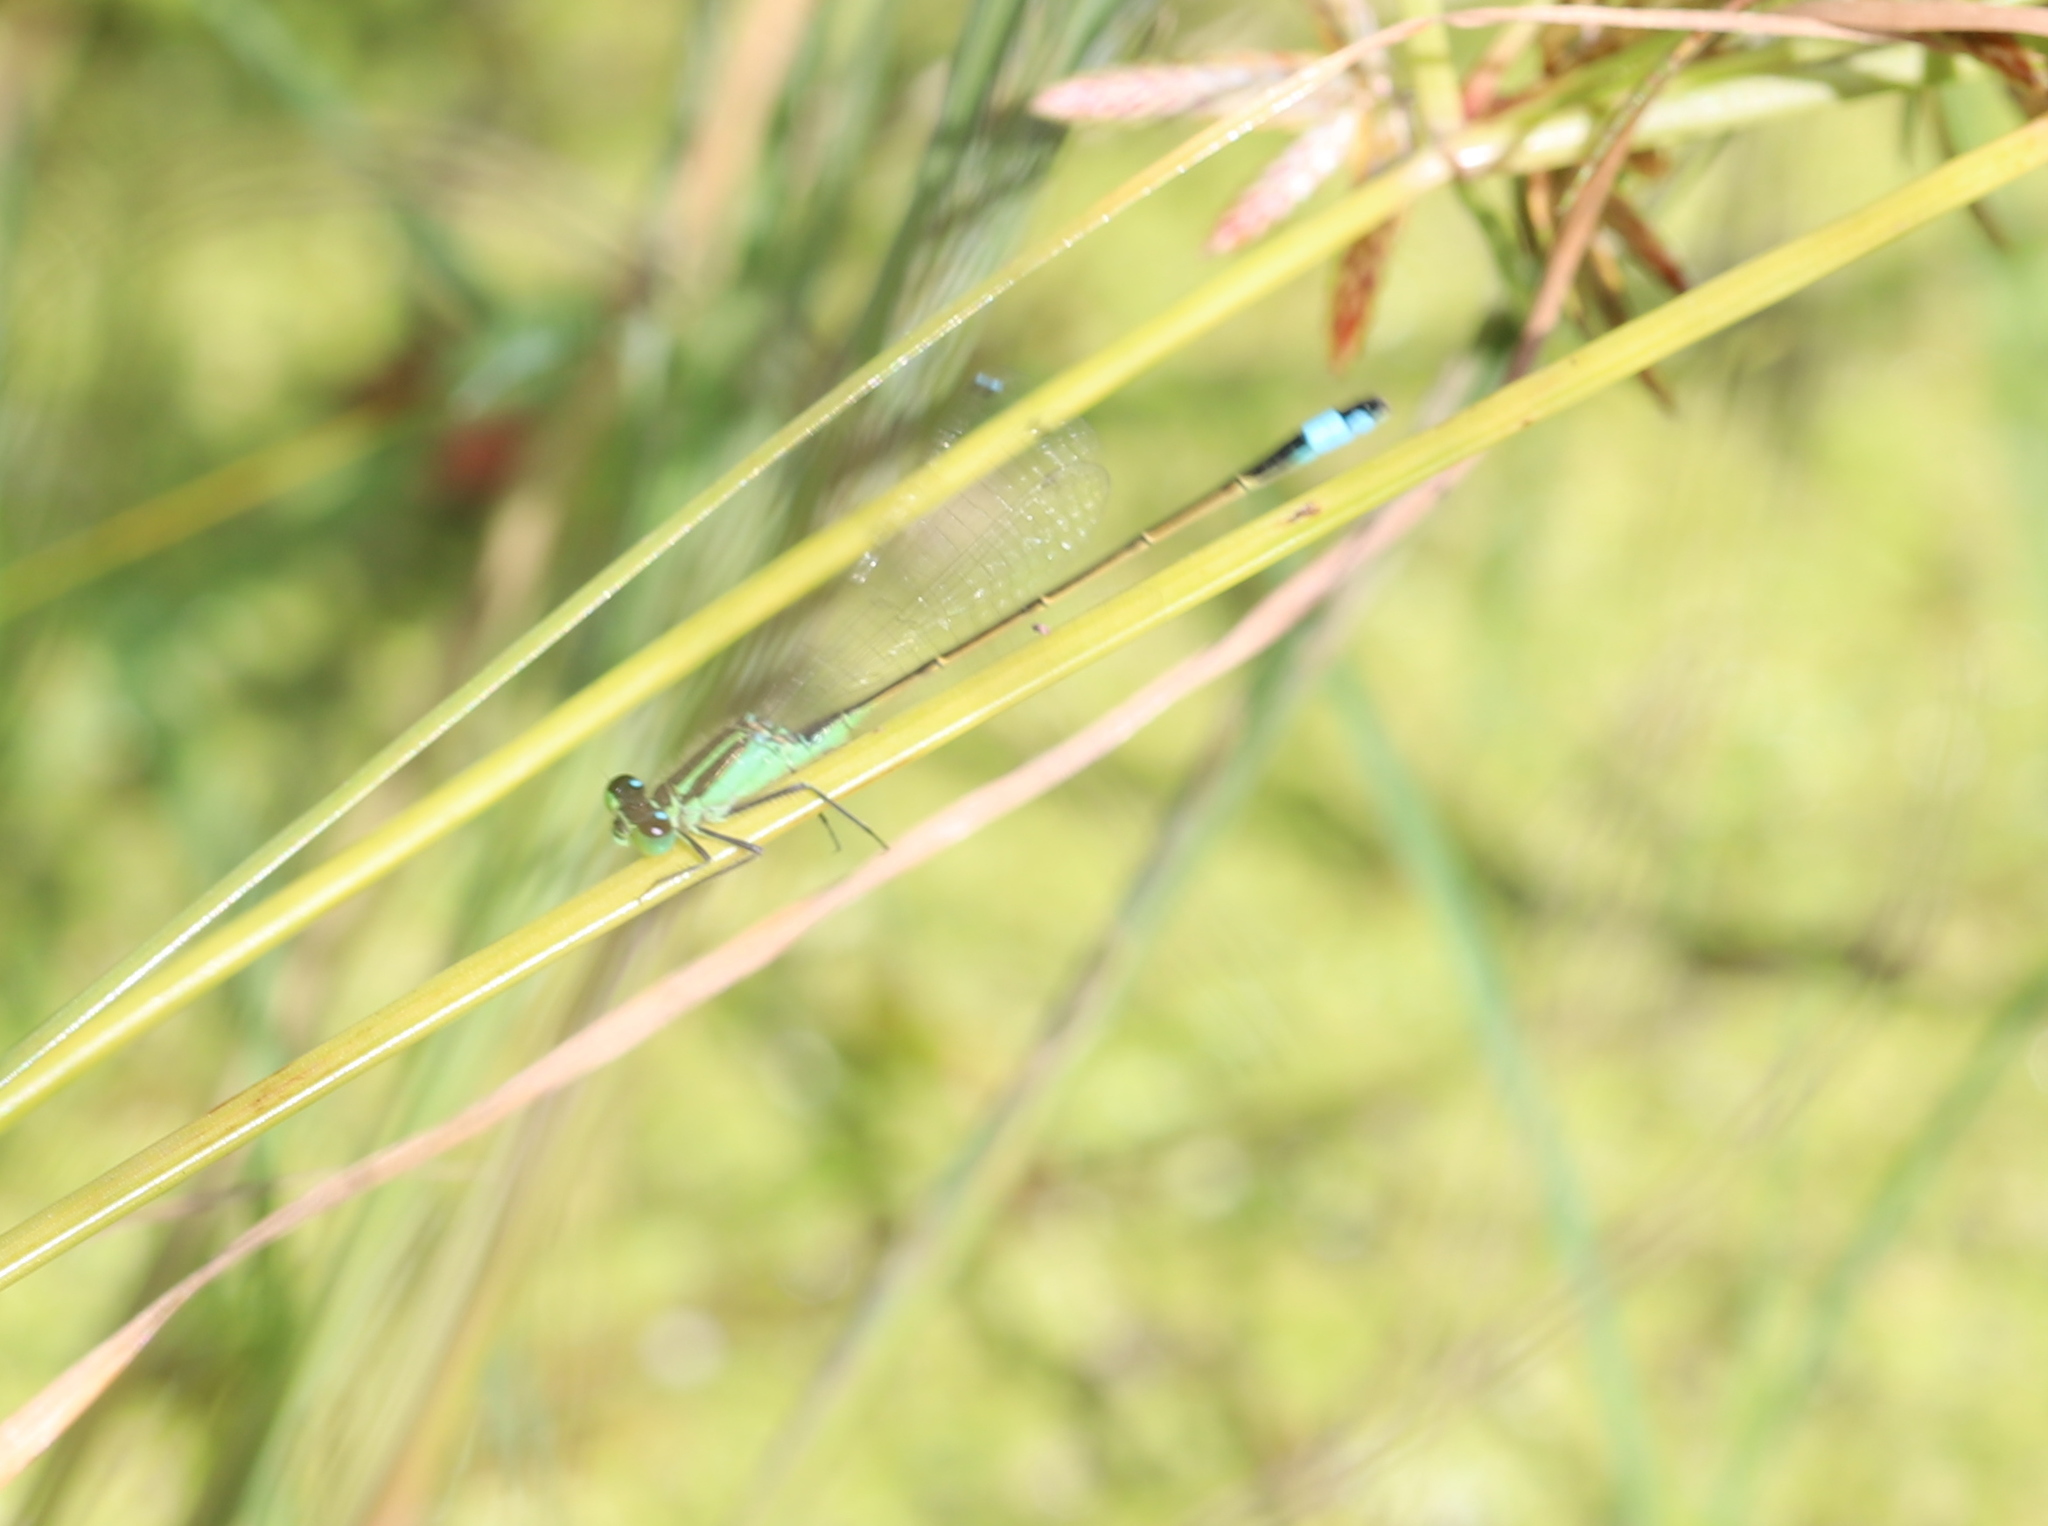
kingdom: Animalia
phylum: Arthropoda
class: Insecta
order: Odonata
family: Coenagrionidae
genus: Ischnura
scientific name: Ischnura ramburii
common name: Rambur's forktail
